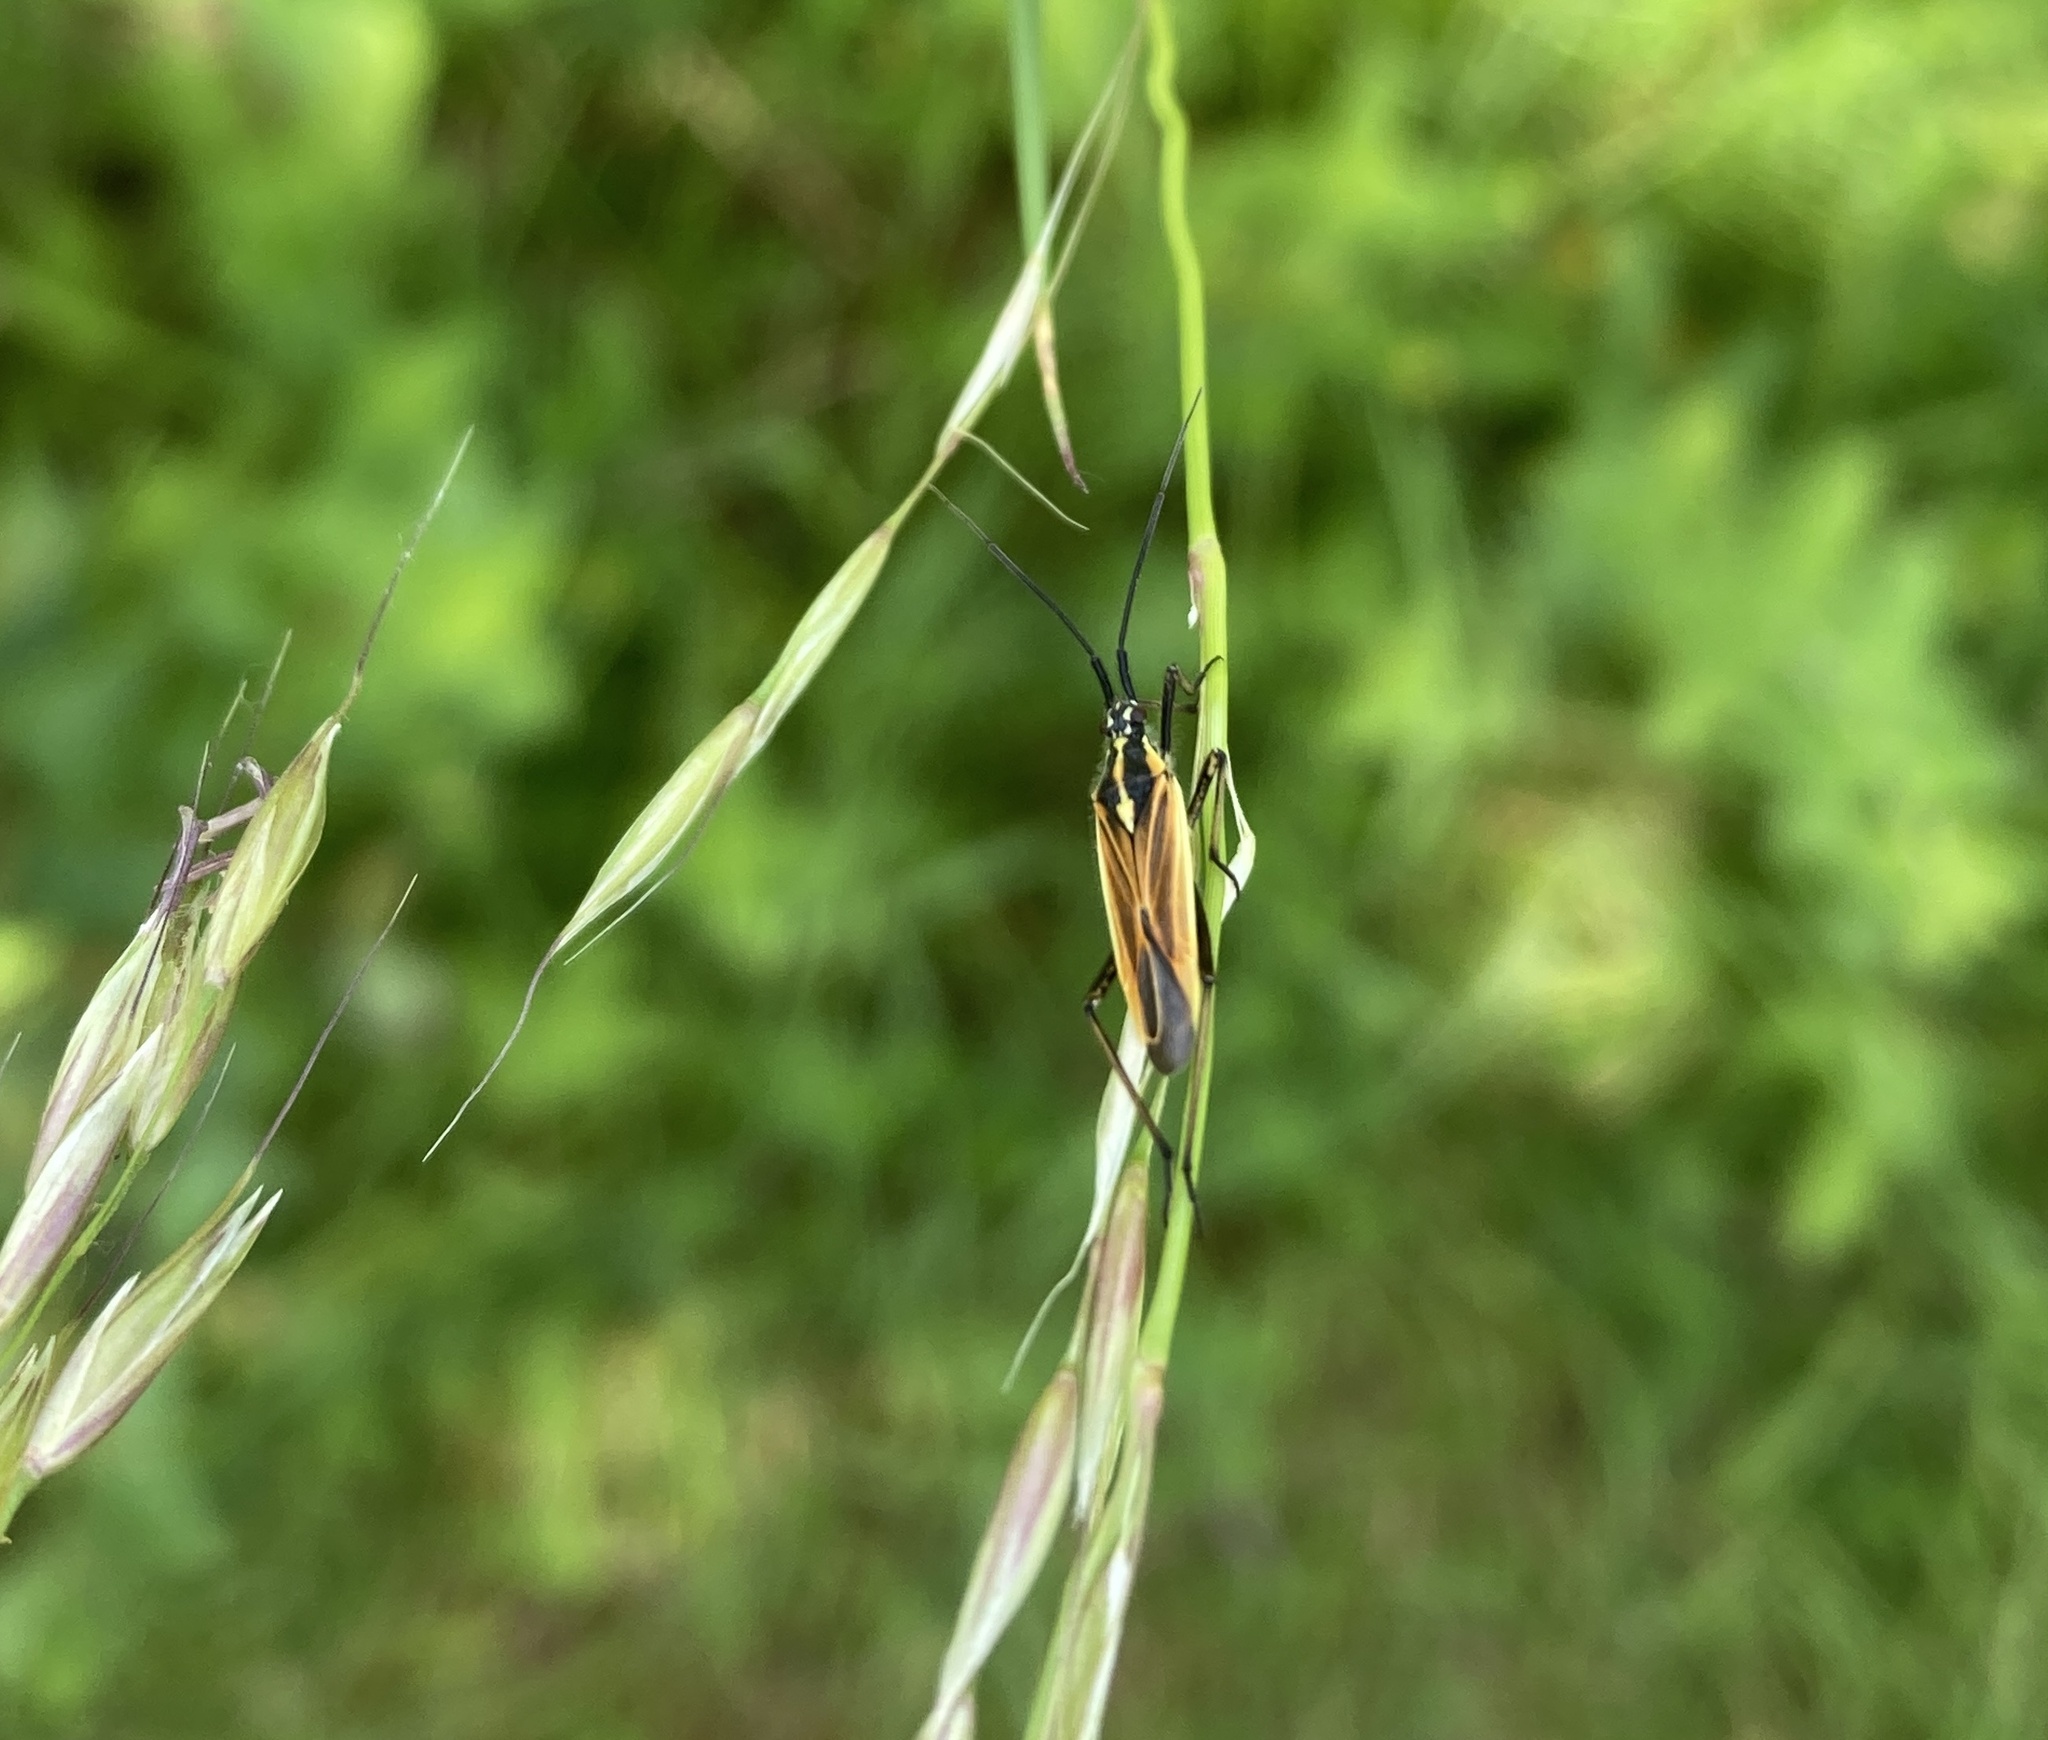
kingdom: Animalia
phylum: Arthropoda
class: Insecta
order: Hemiptera
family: Miridae
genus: Leptopterna
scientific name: Leptopterna dolabrata
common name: Meadow plant bug
